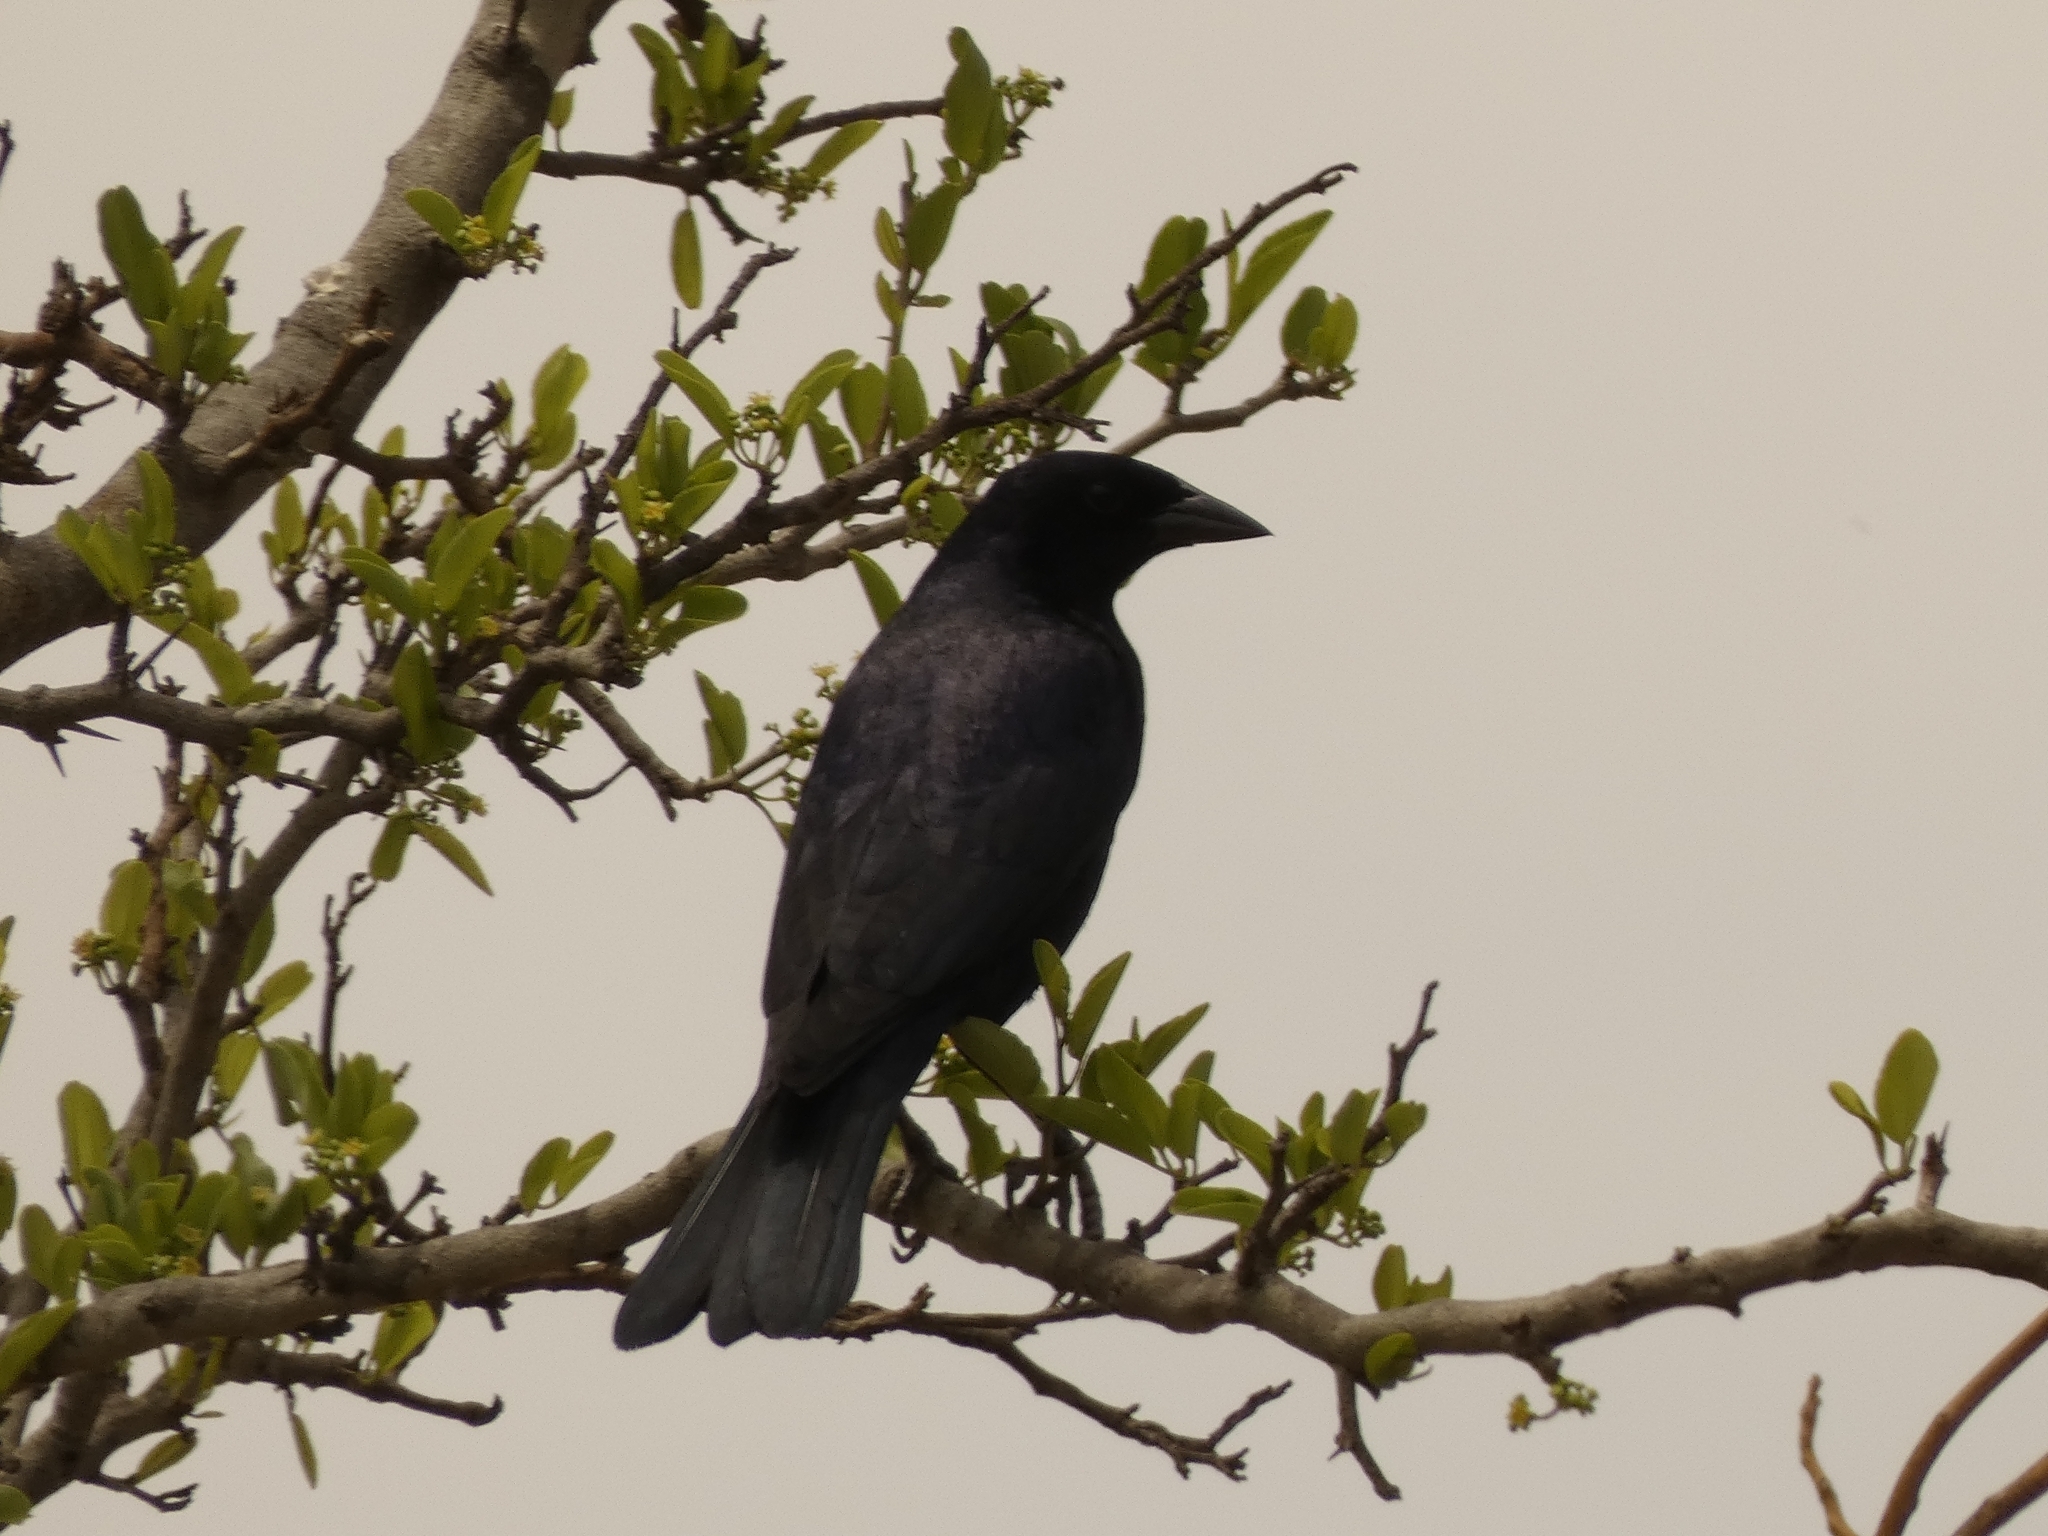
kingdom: Animalia
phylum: Chordata
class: Aves
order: Passeriformes
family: Icteridae
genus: Molothrus
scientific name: Molothrus bonariensis
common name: Shiny cowbird
